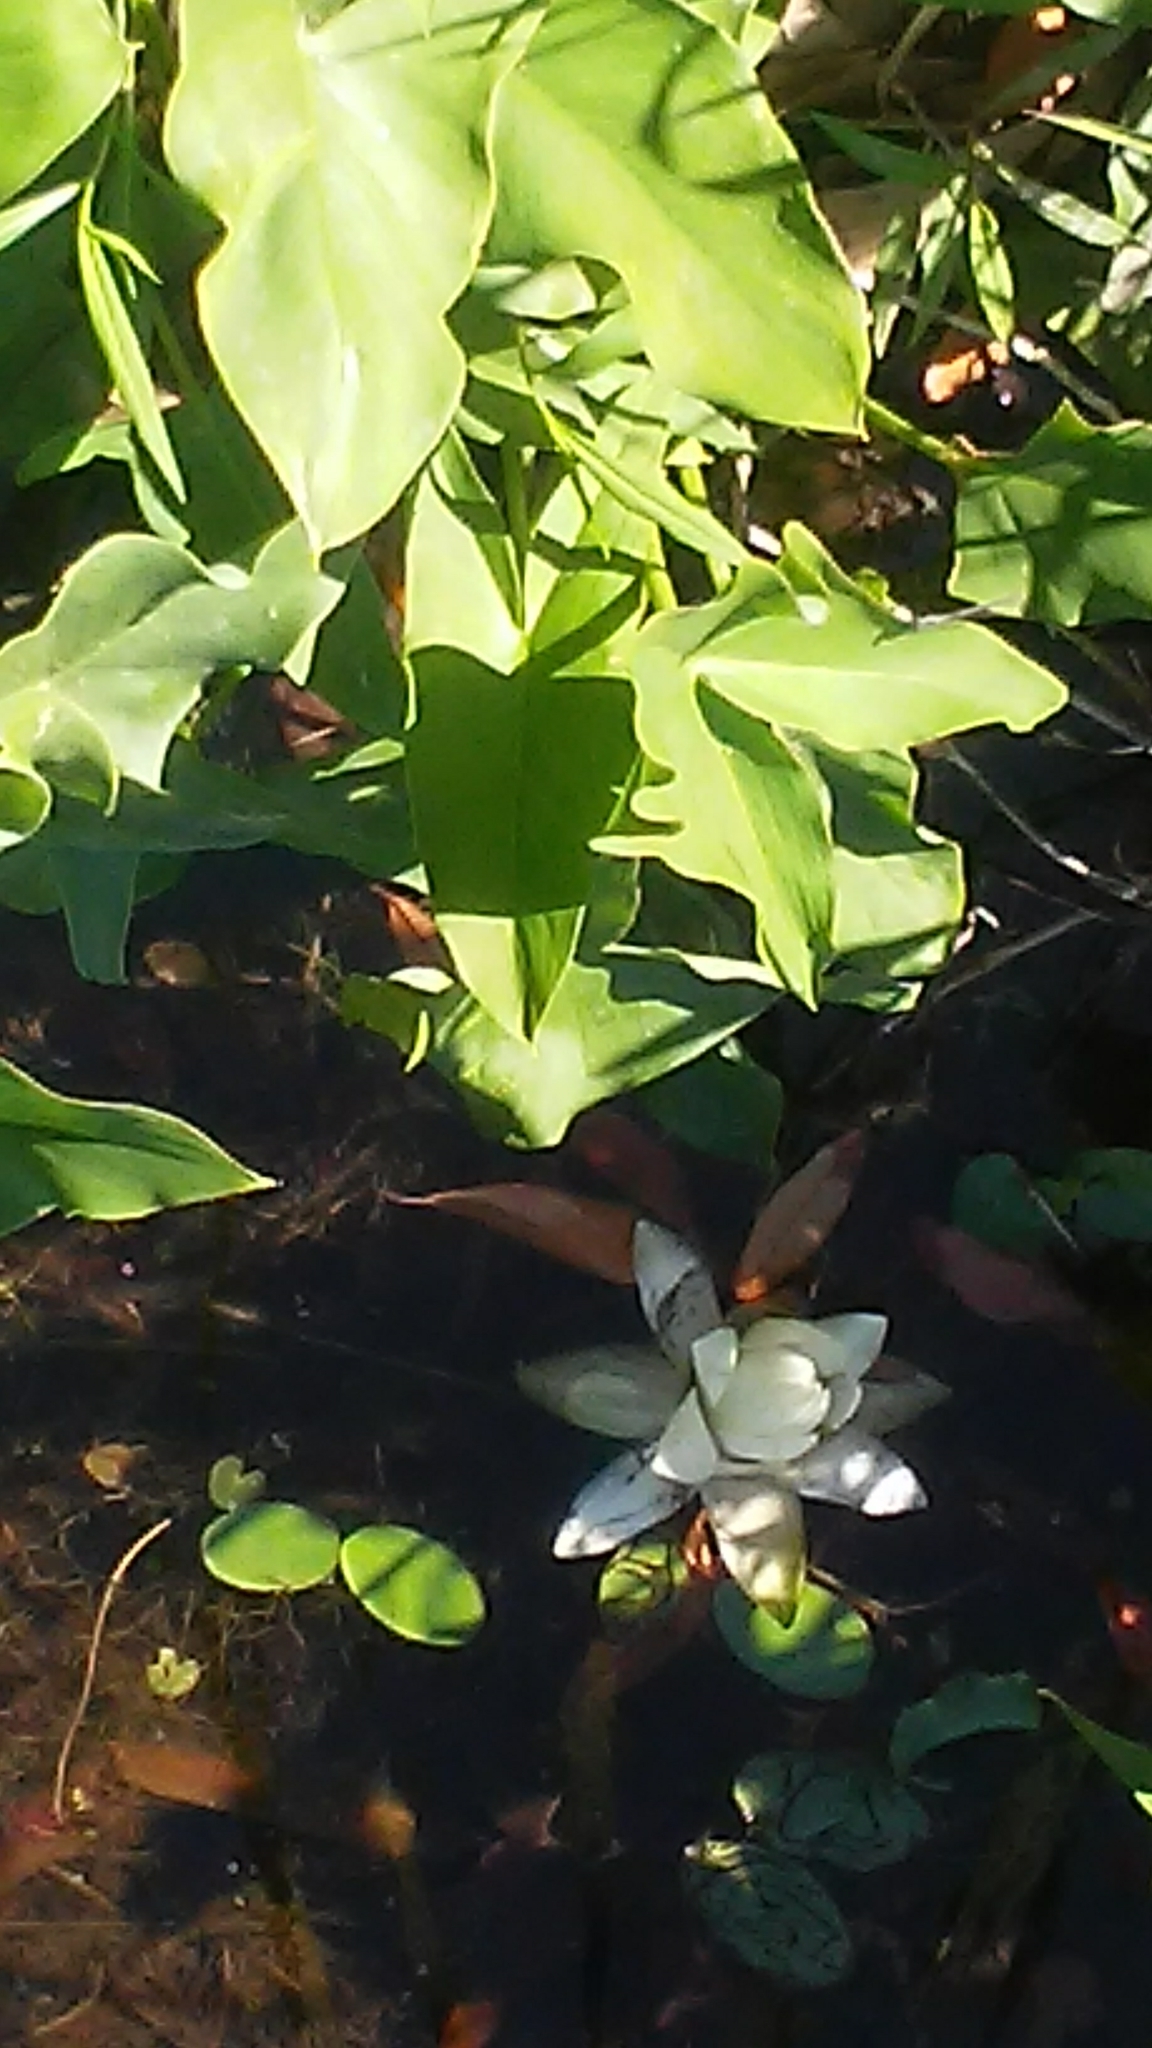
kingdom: Plantae
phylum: Tracheophyta
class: Magnoliopsida
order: Nymphaeales
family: Nymphaeaceae
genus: Nymphaea
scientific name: Nymphaea odorata
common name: Fragrant water-lily
